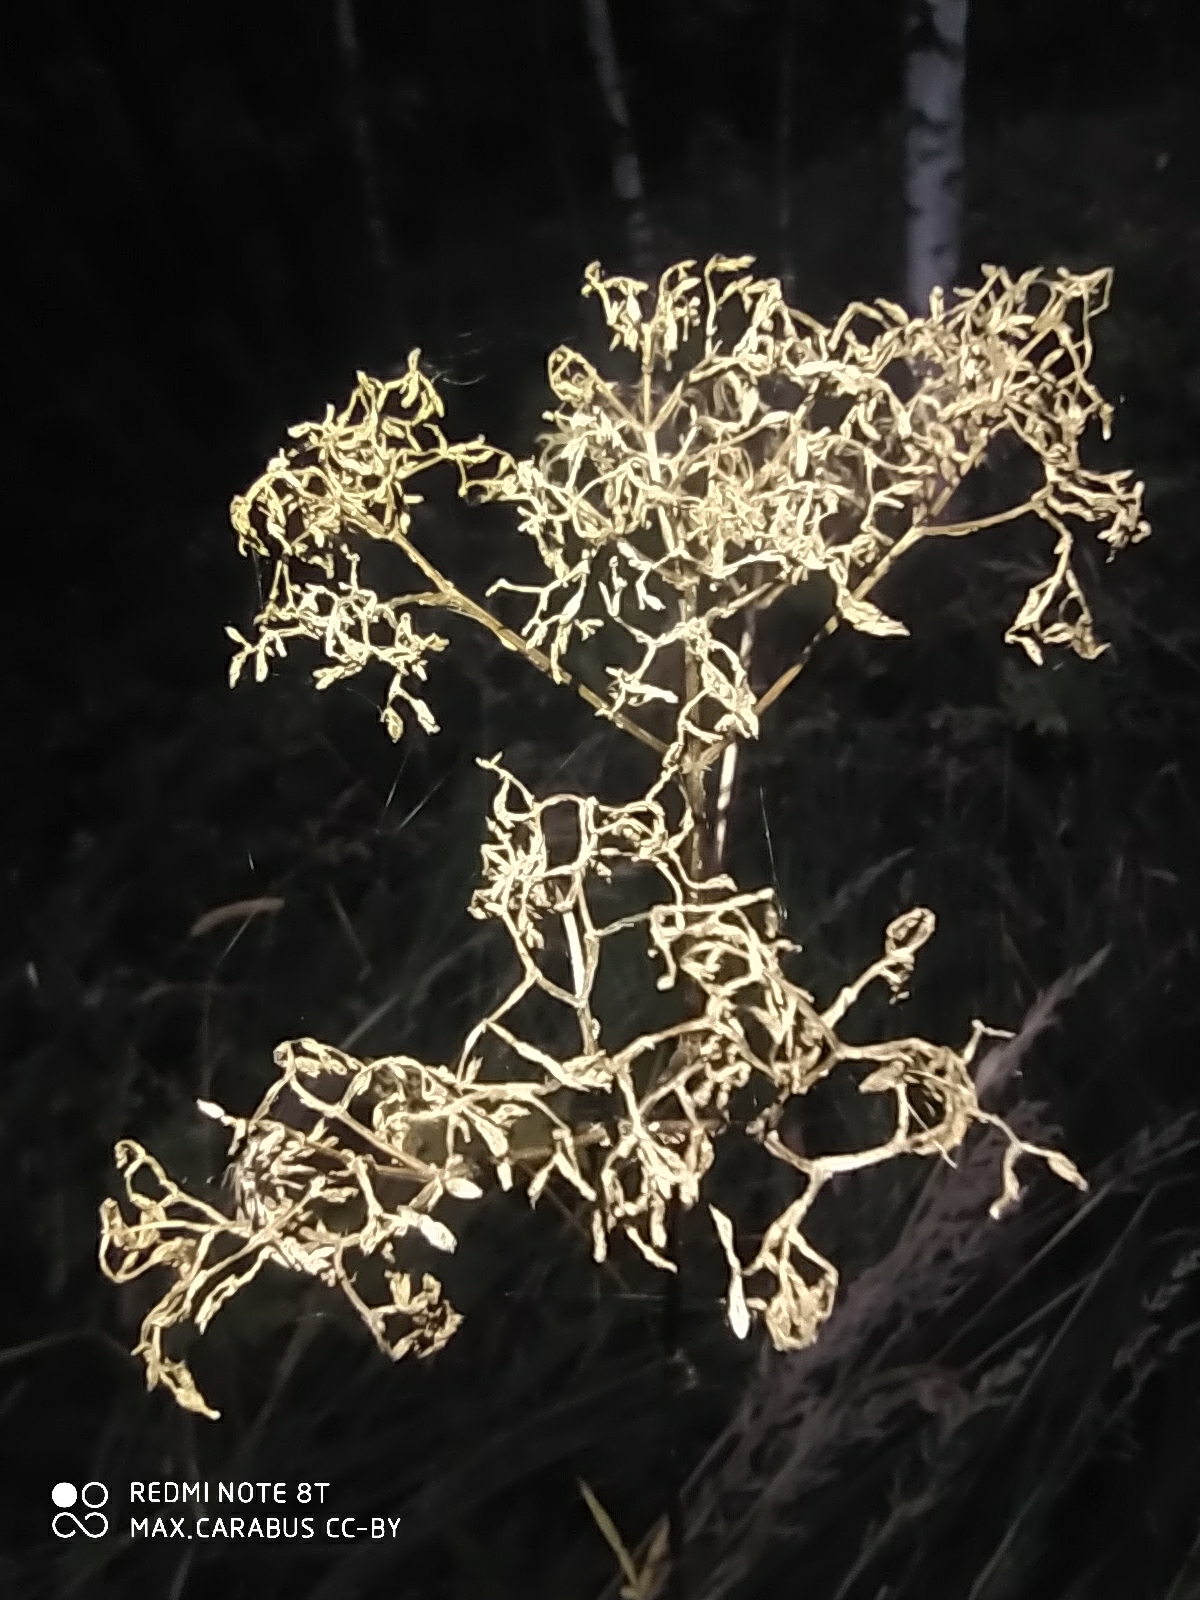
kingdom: Plantae
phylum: Tracheophyta
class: Magnoliopsida
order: Dipsacales
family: Caprifoliaceae
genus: Valeriana
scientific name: Valeriana officinalis
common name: Common valerian
